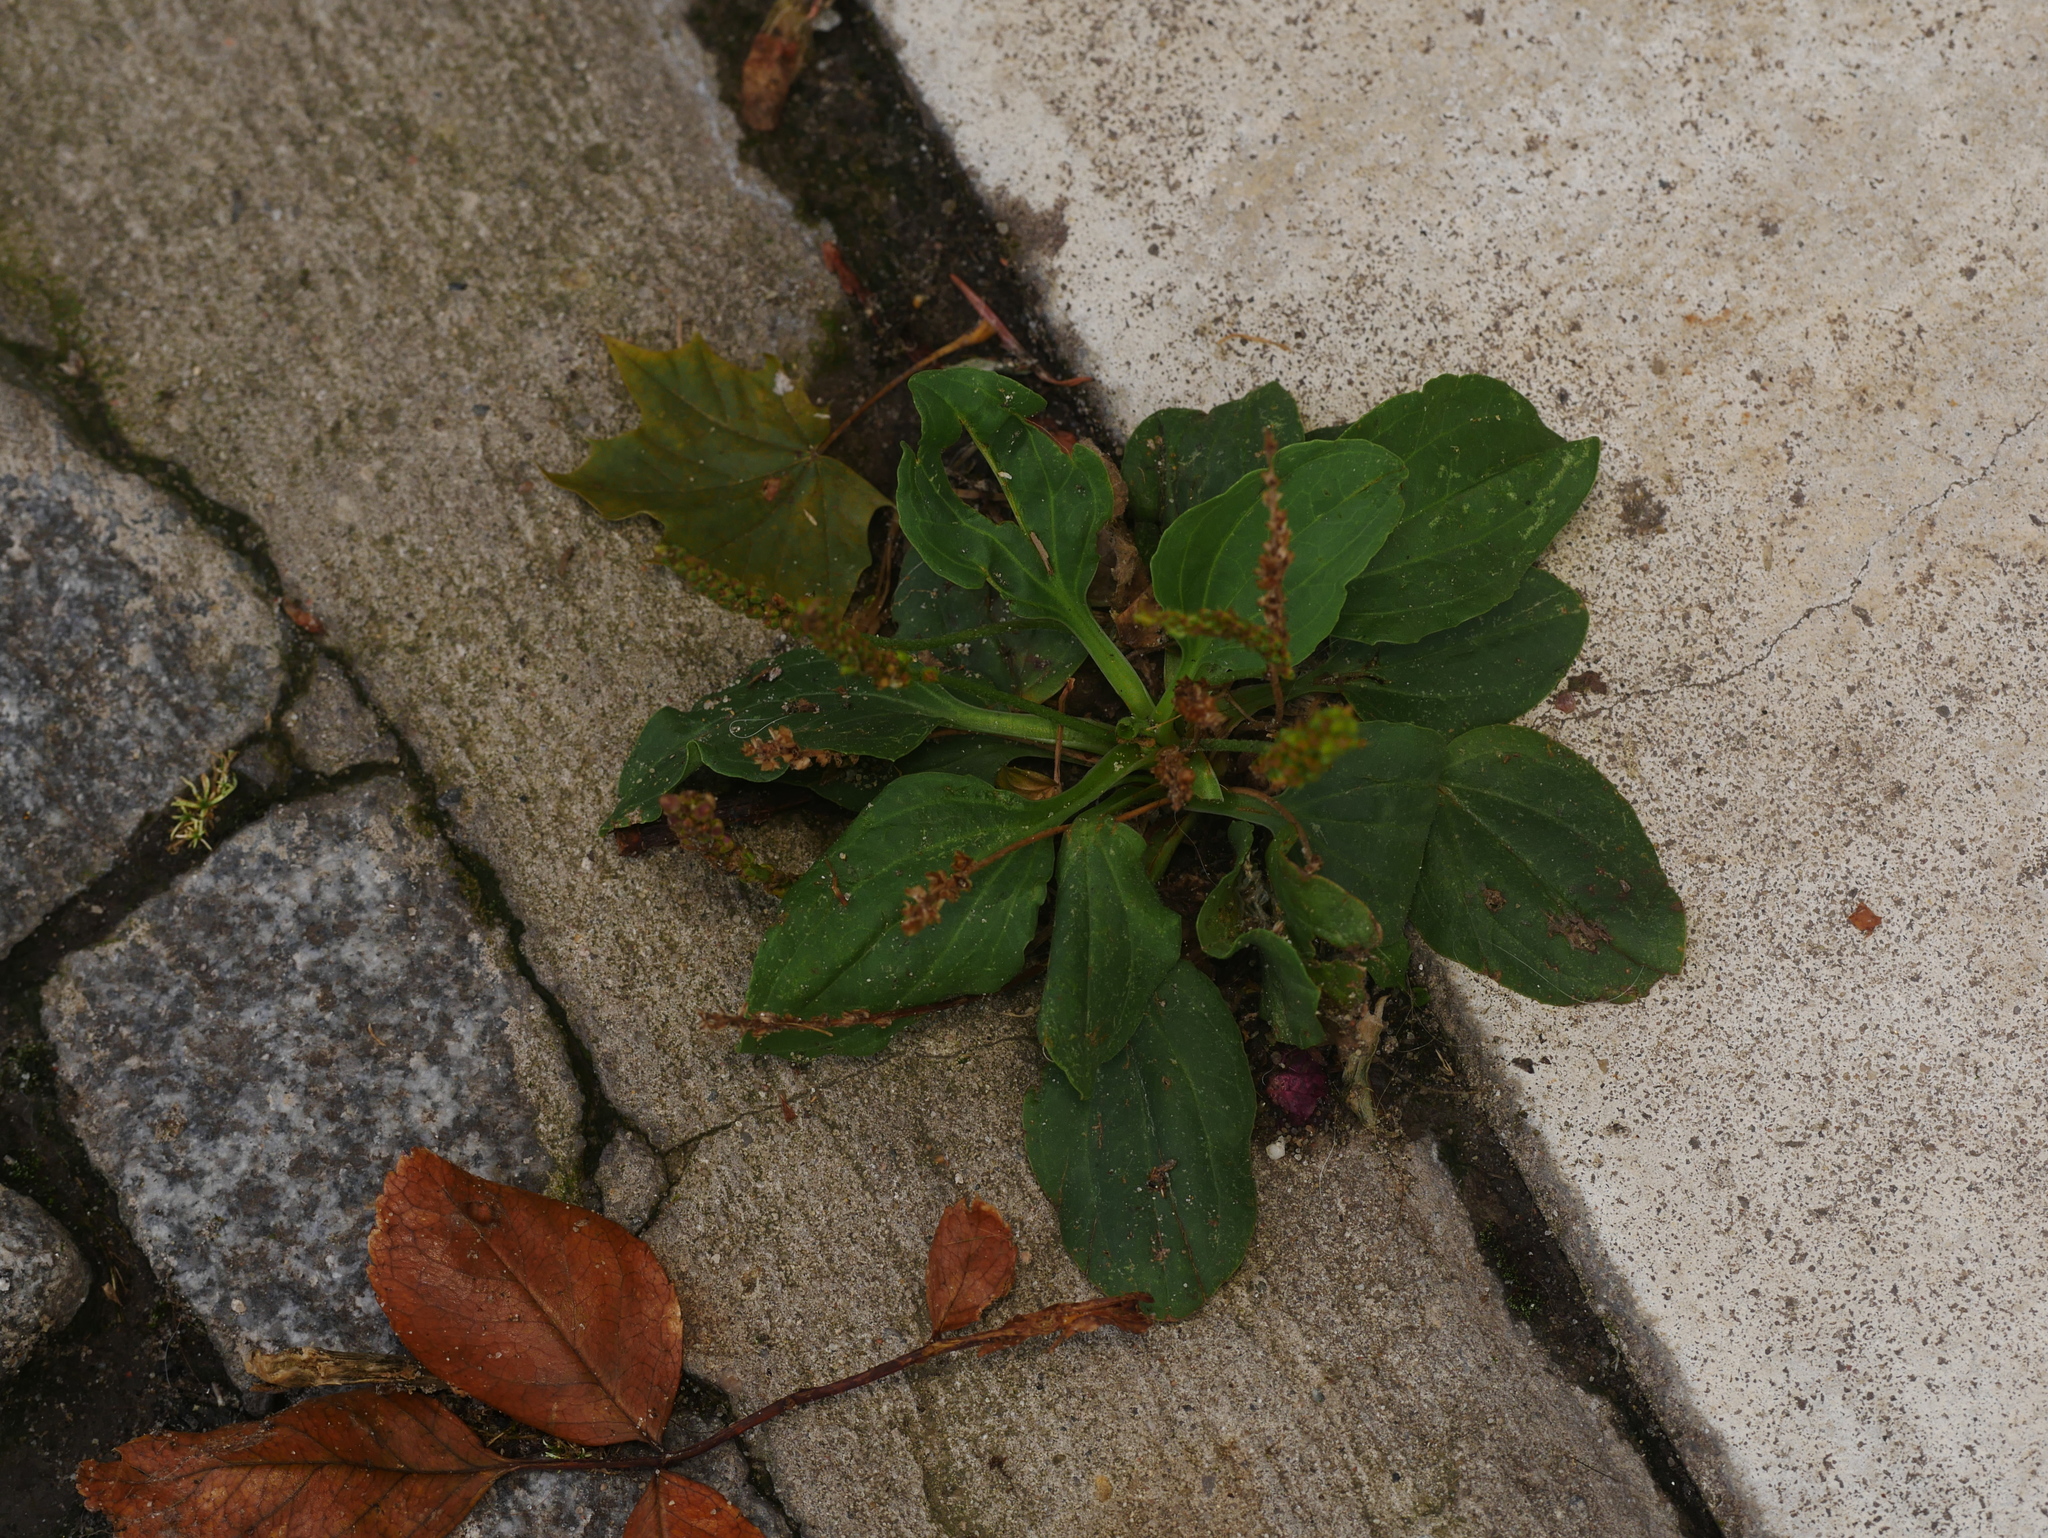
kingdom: Plantae
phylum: Tracheophyta
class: Magnoliopsida
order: Lamiales
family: Plantaginaceae
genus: Plantago
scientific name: Plantago major
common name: Common plantain
